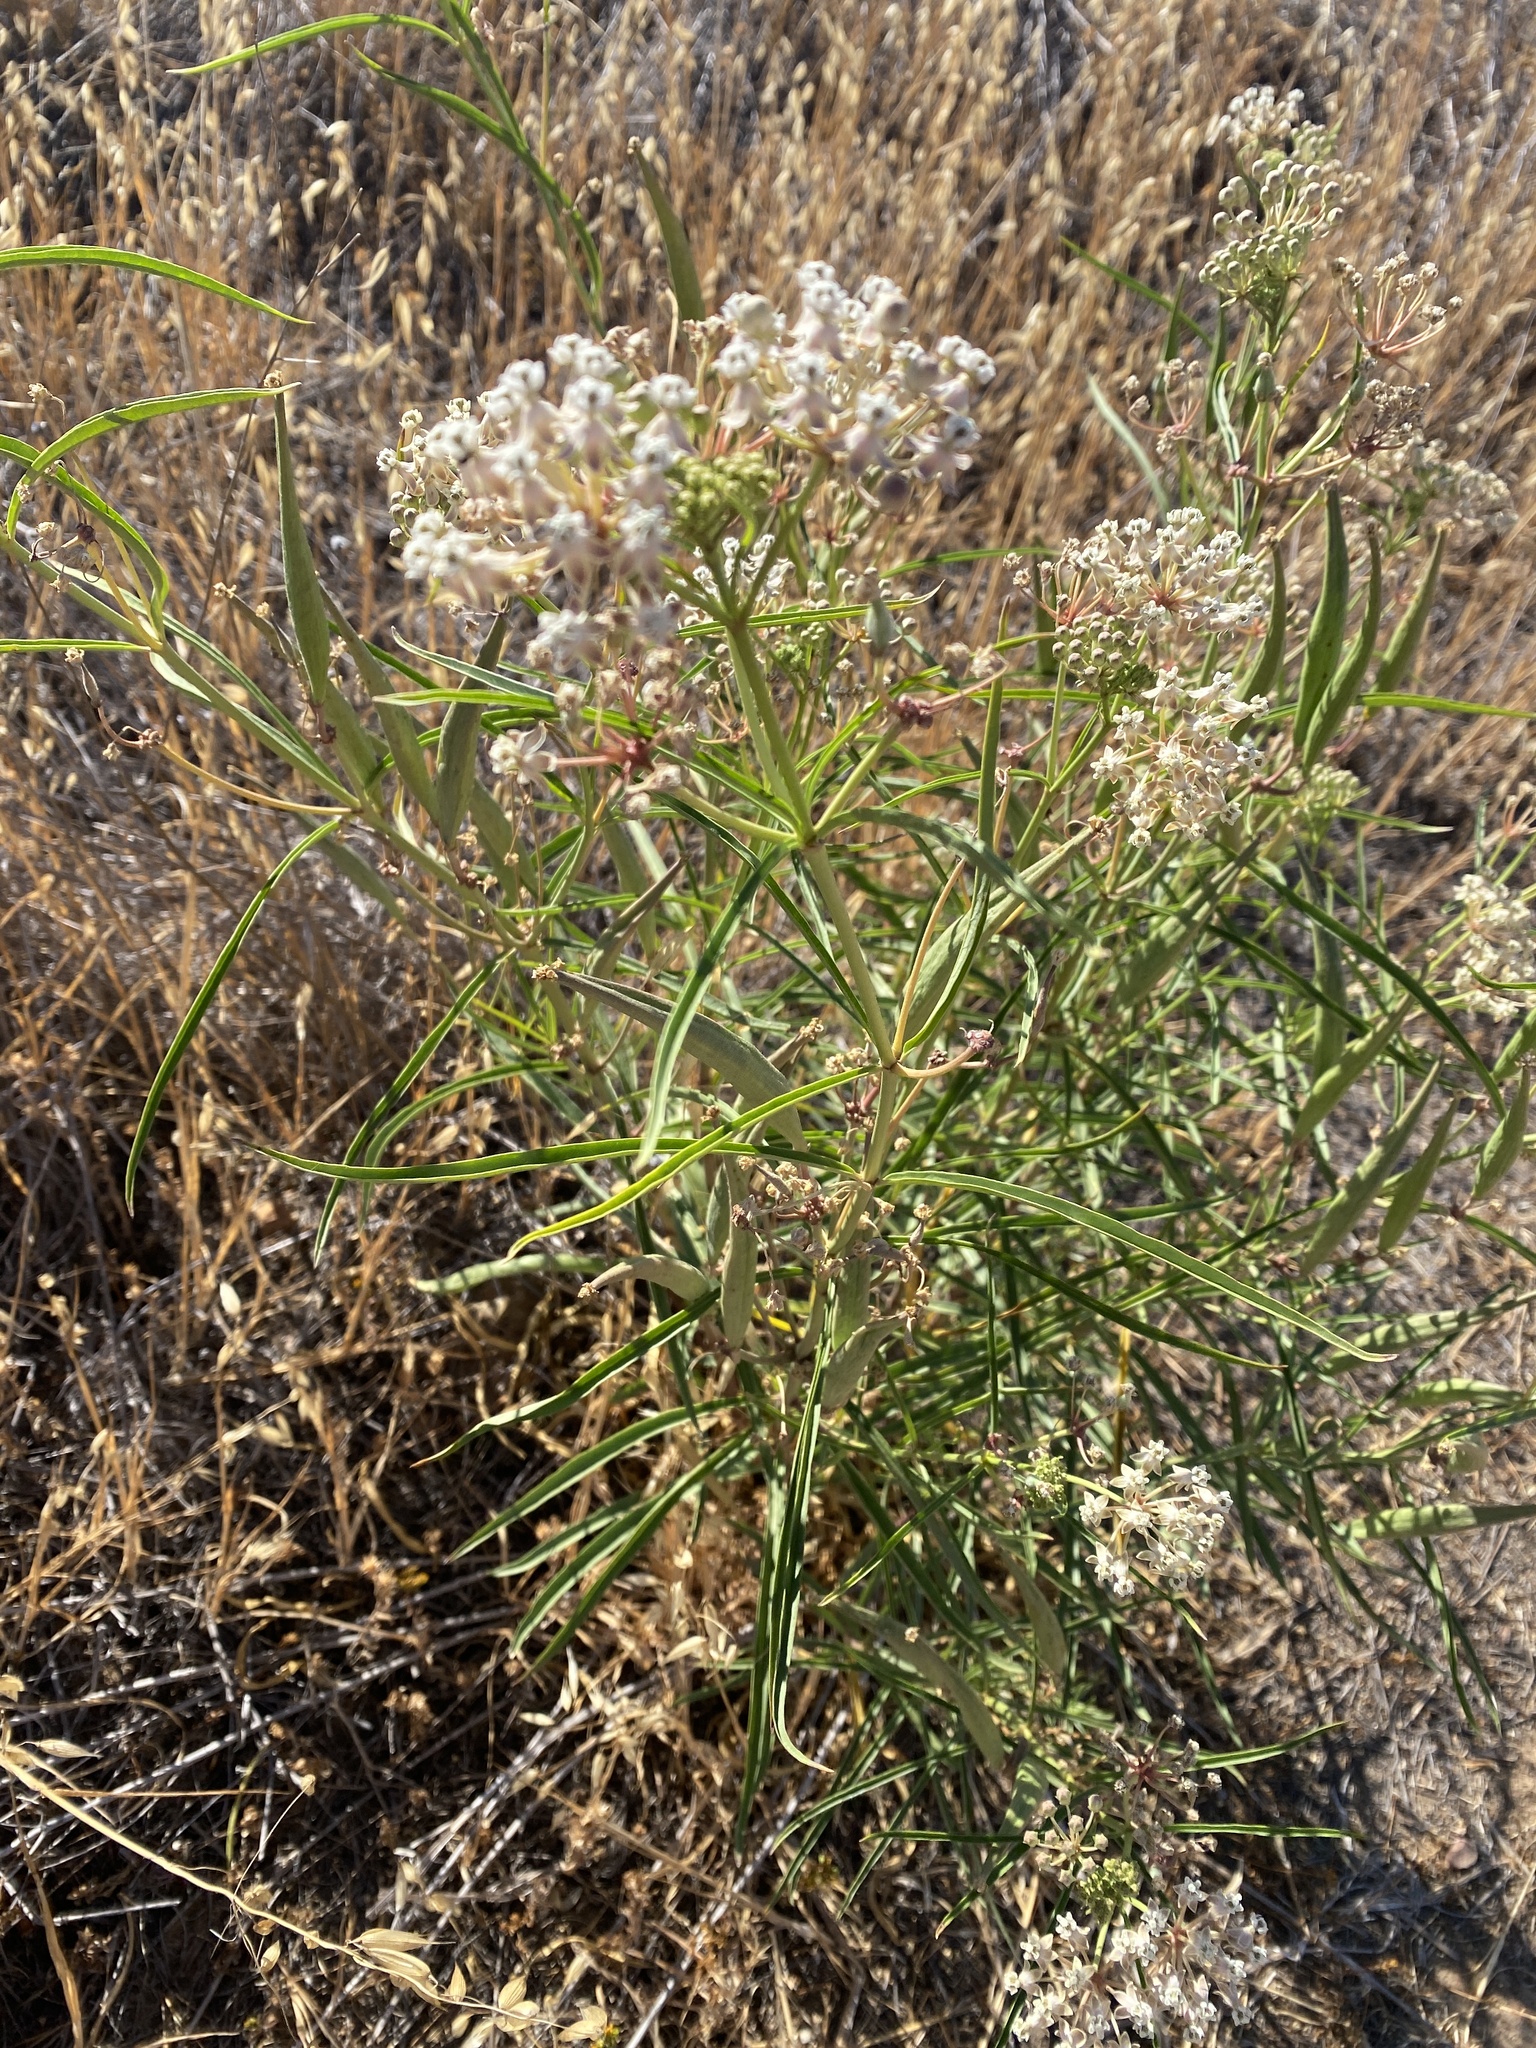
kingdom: Plantae
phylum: Tracheophyta
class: Magnoliopsida
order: Gentianales
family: Apocynaceae
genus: Asclepias
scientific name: Asclepias fascicularis
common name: Mexican milkweed
